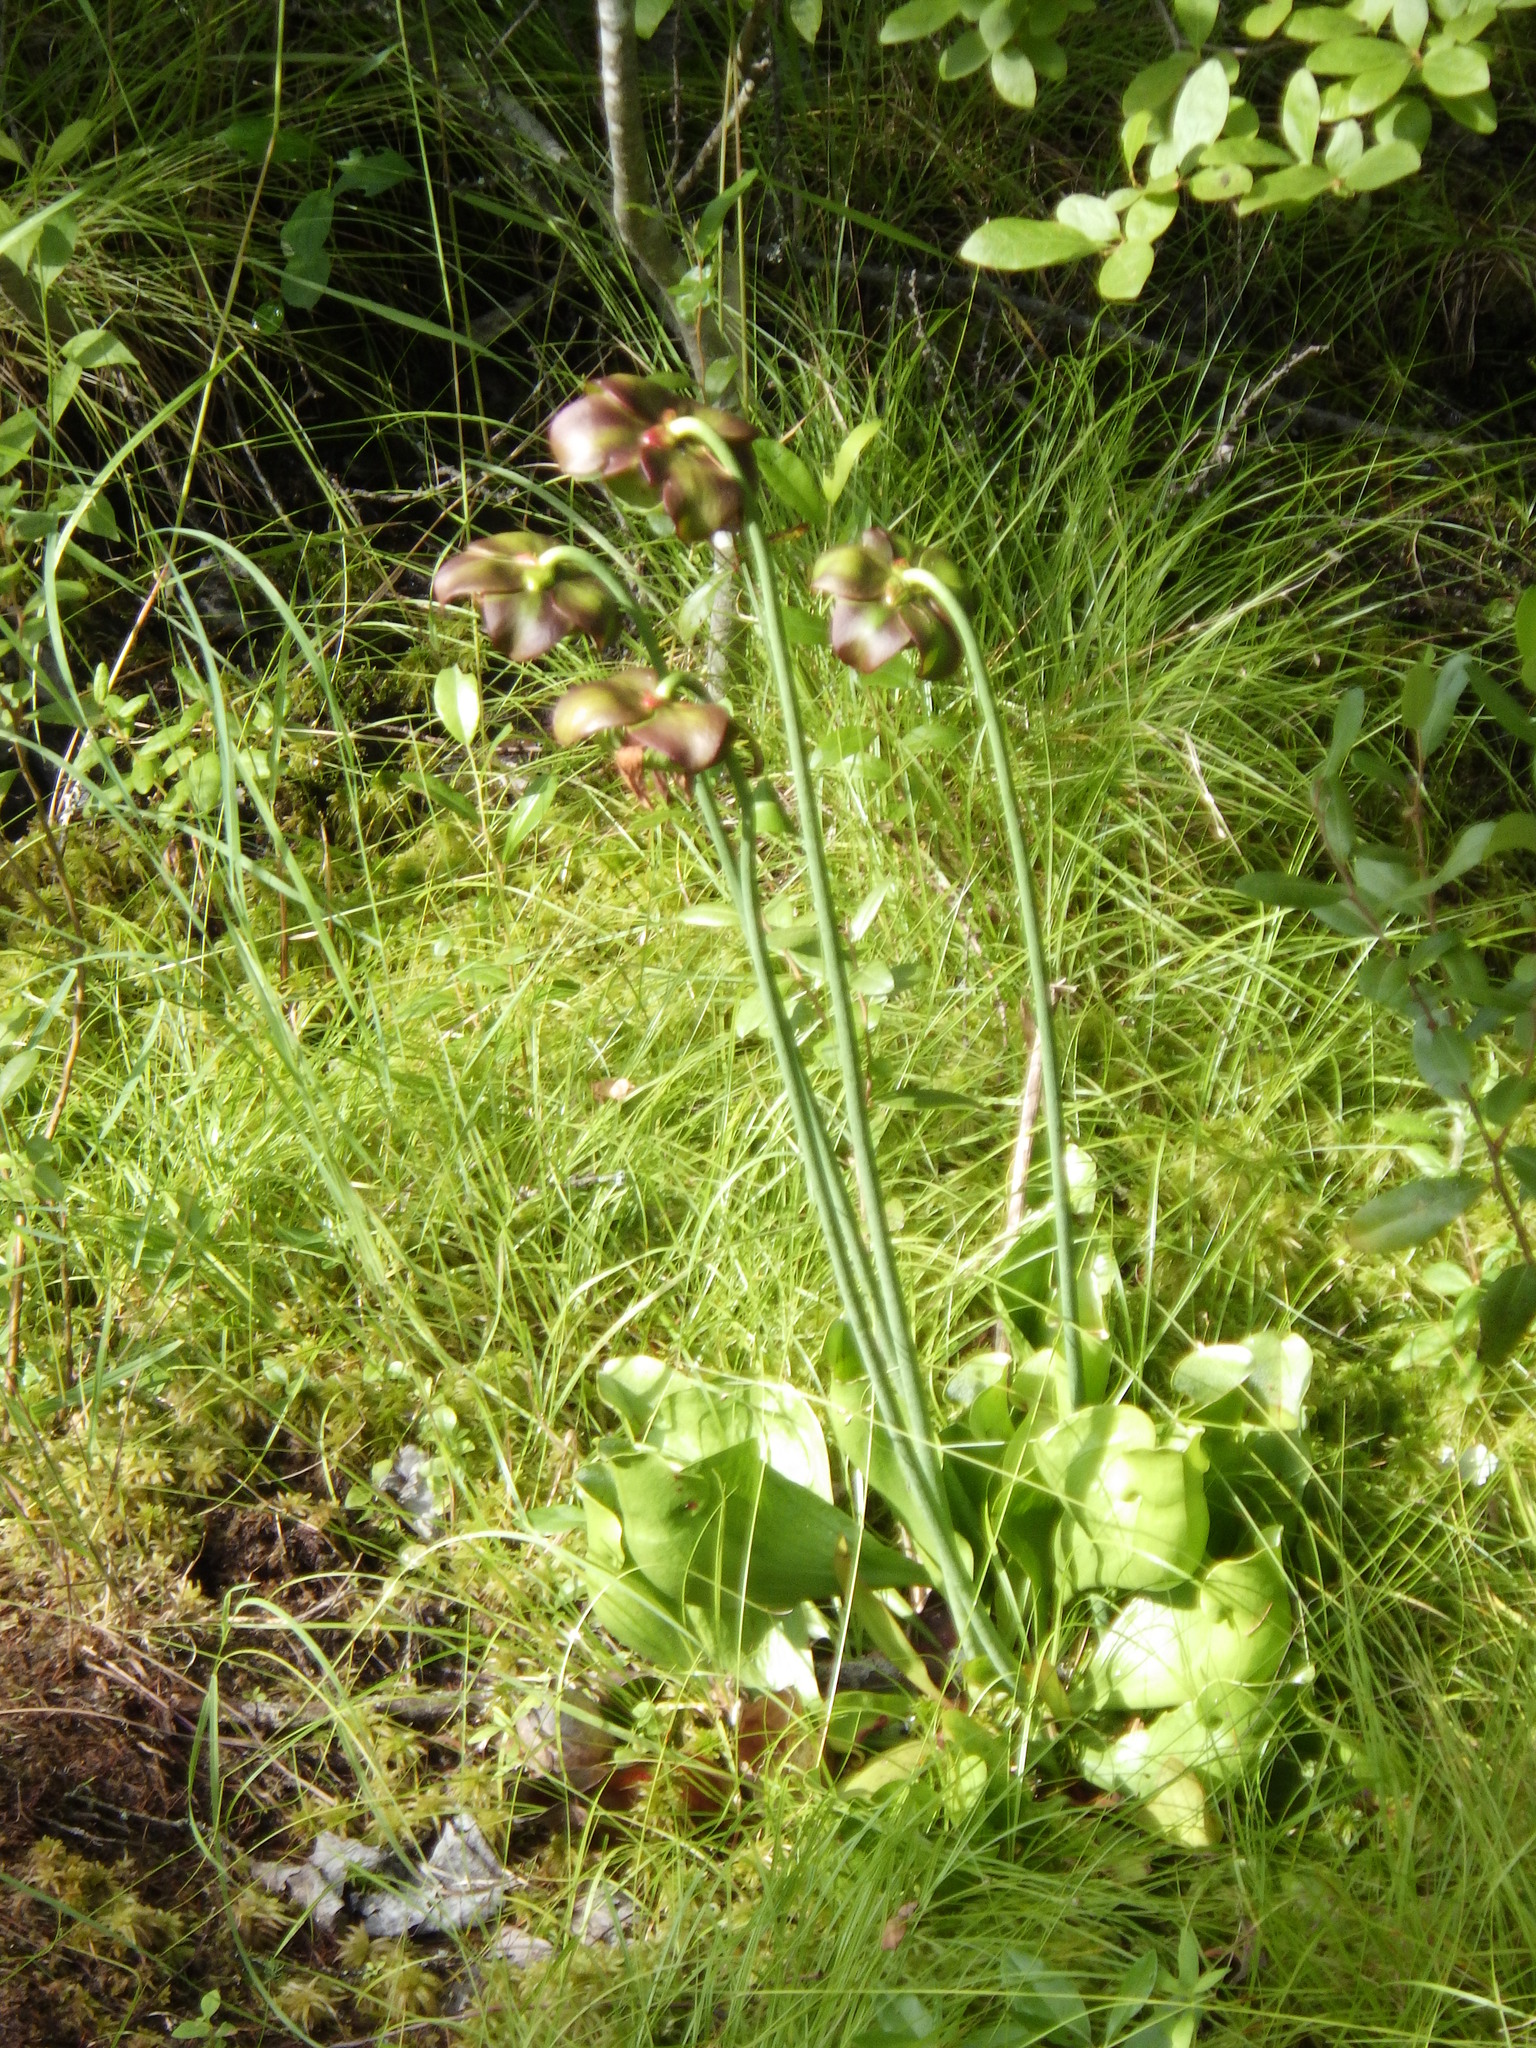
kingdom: Plantae
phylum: Tracheophyta
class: Magnoliopsida
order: Ericales
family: Sarraceniaceae
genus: Sarracenia
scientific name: Sarracenia purpurea
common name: Pitcherplant
